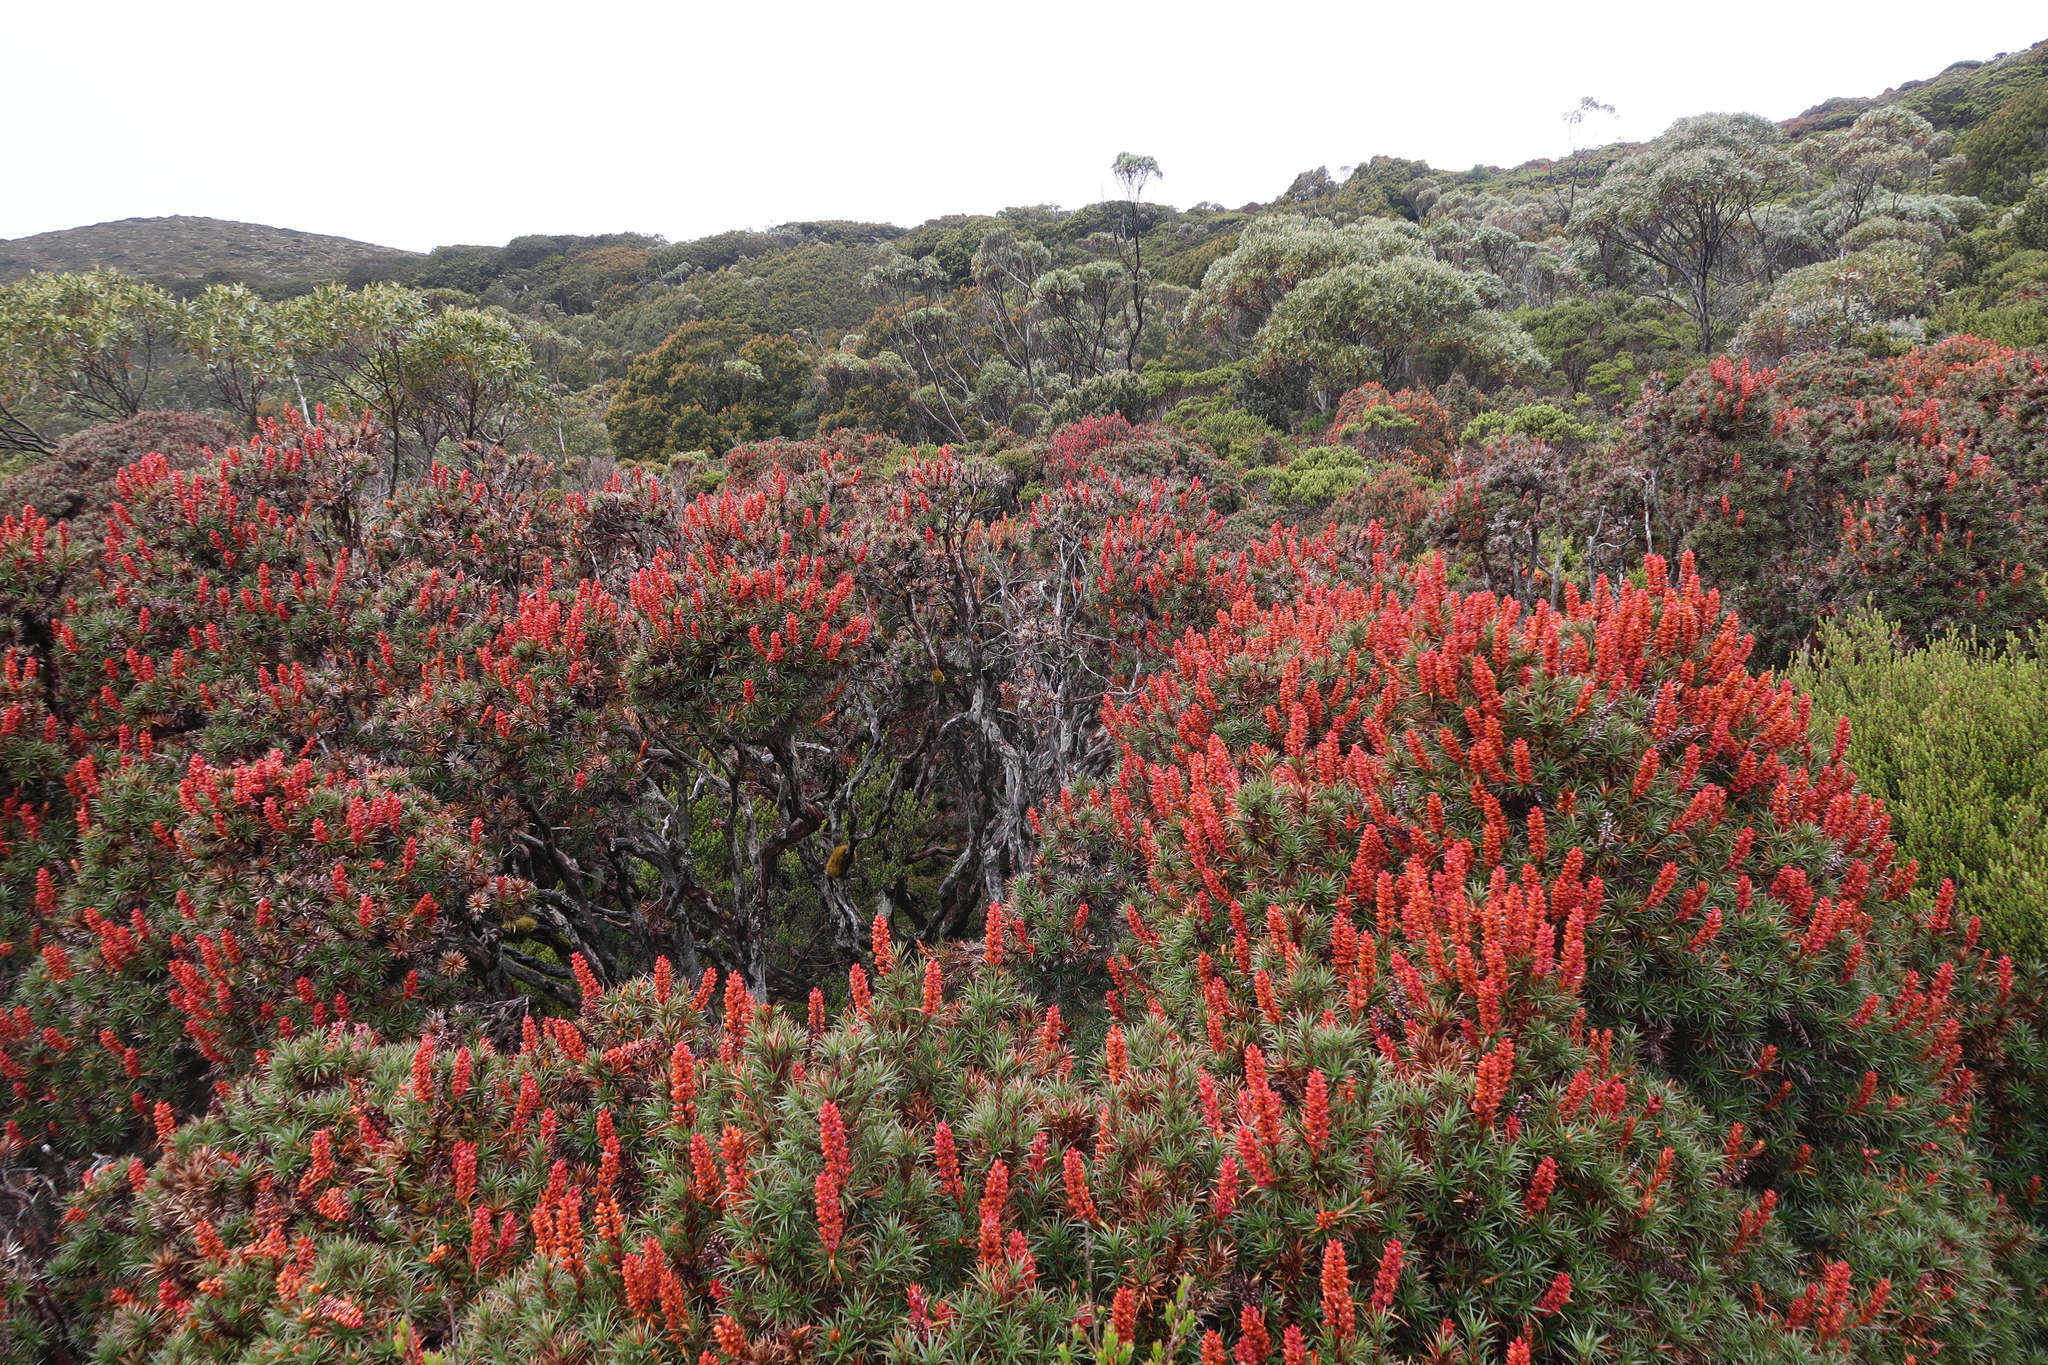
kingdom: Plantae
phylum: Tracheophyta
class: Magnoliopsida
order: Ericales
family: Ericaceae
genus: Dracophyllum
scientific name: Dracophyllum persistentifolium
